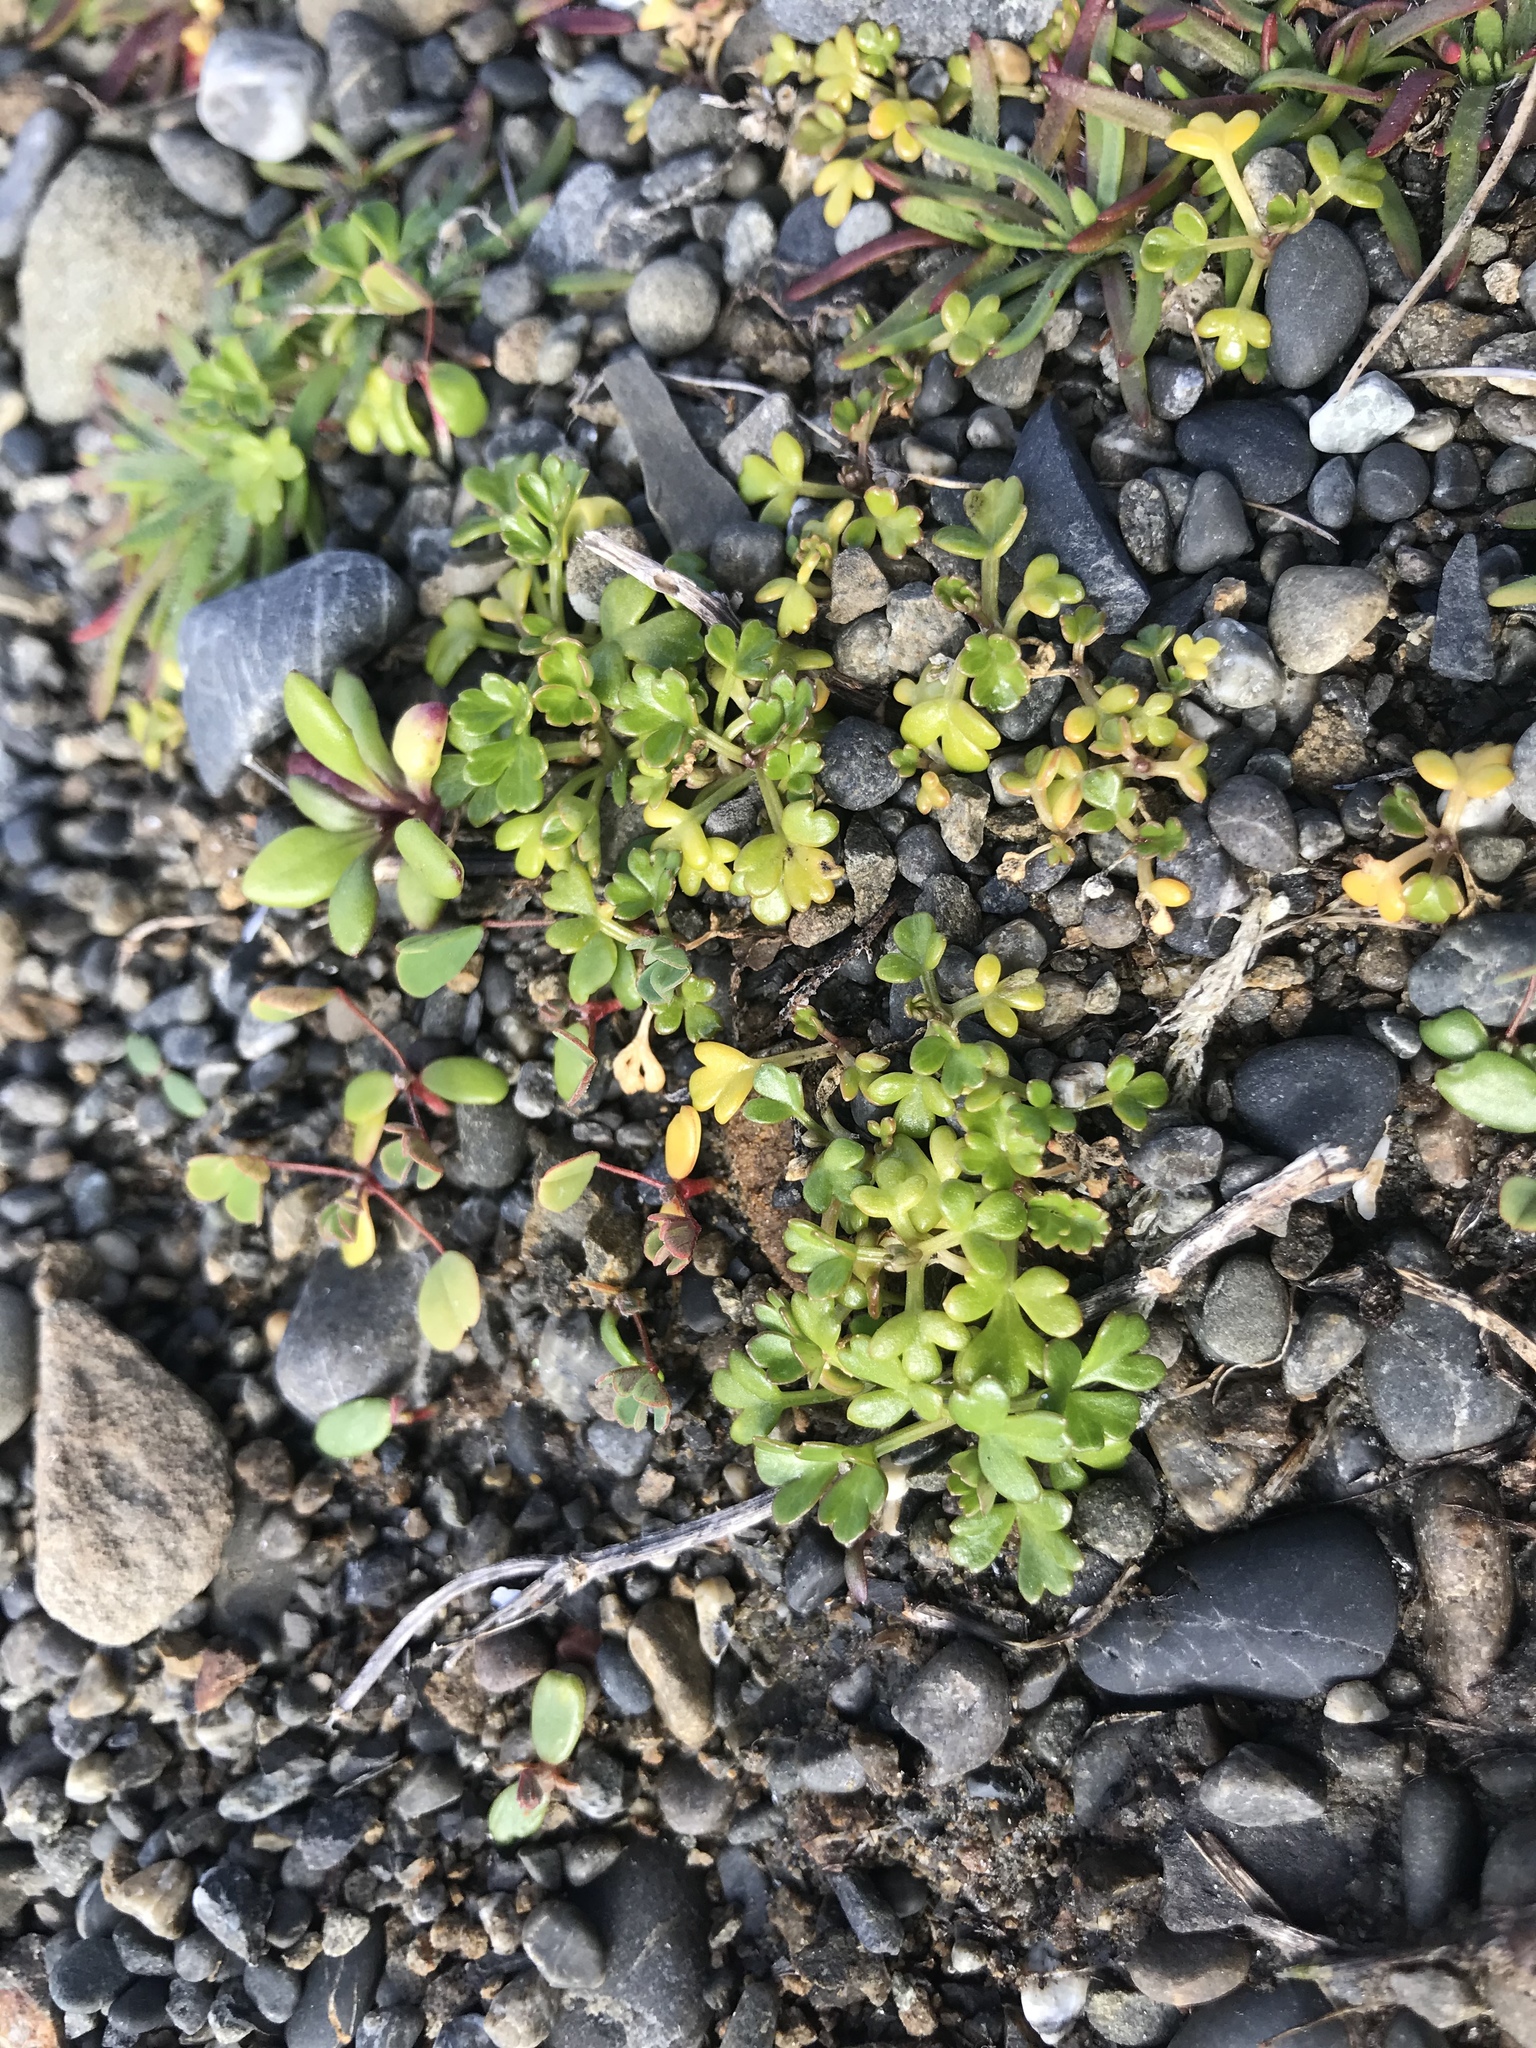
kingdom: Plantae
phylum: Tracheophyta
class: Magnoliopsida
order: Ranunculales
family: Ranunculaceae
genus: Ranunculus
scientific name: Ranunculus acaulis
